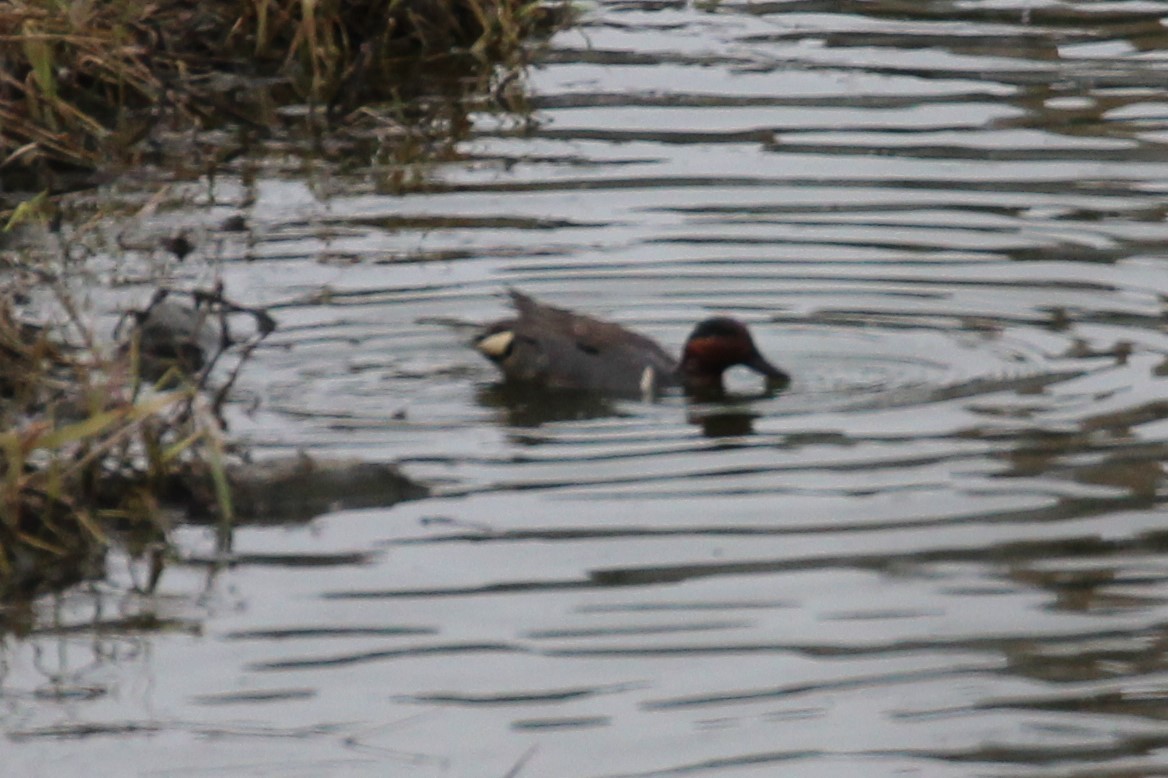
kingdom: Animalia
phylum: Chordata
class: Aves
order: Anseriformes
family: Anatidae
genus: Anas
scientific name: Anas crecca
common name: Eurasian teal
